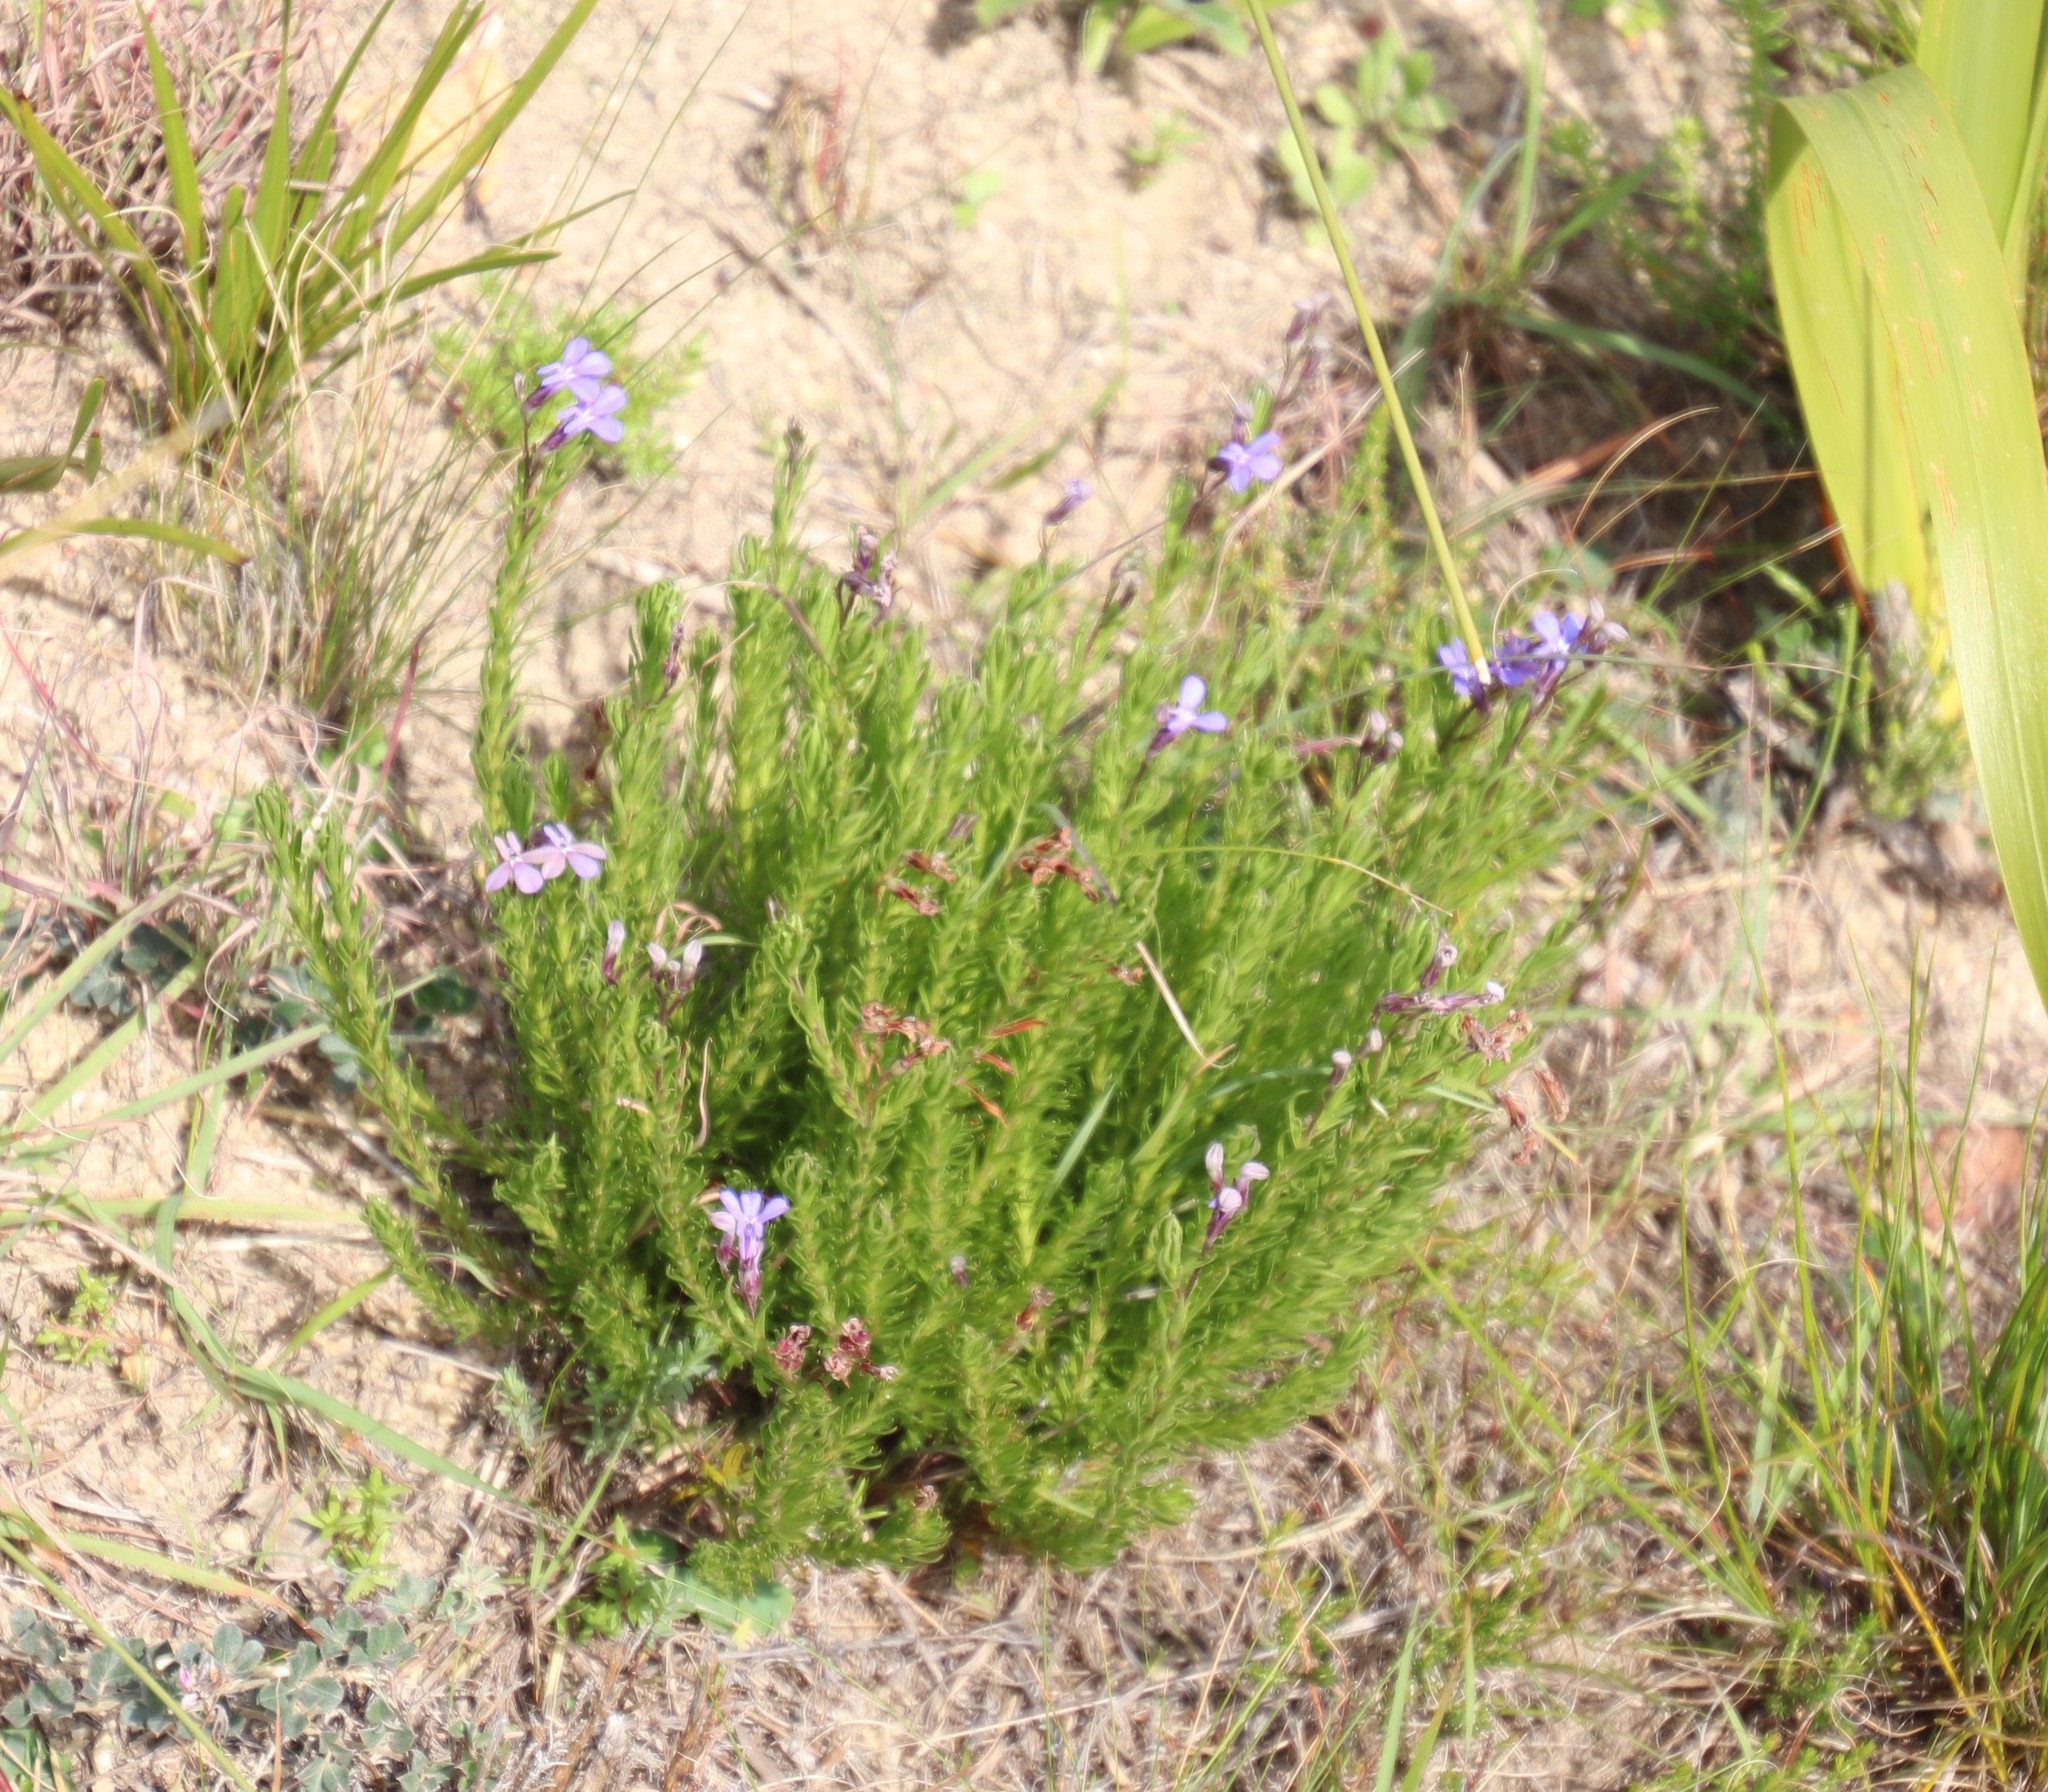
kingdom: Plantae
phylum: Tracheophyta
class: Magnoliopsida
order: Asterales
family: Campanulaceae
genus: Lobelia
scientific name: Lobelia pinifolia
